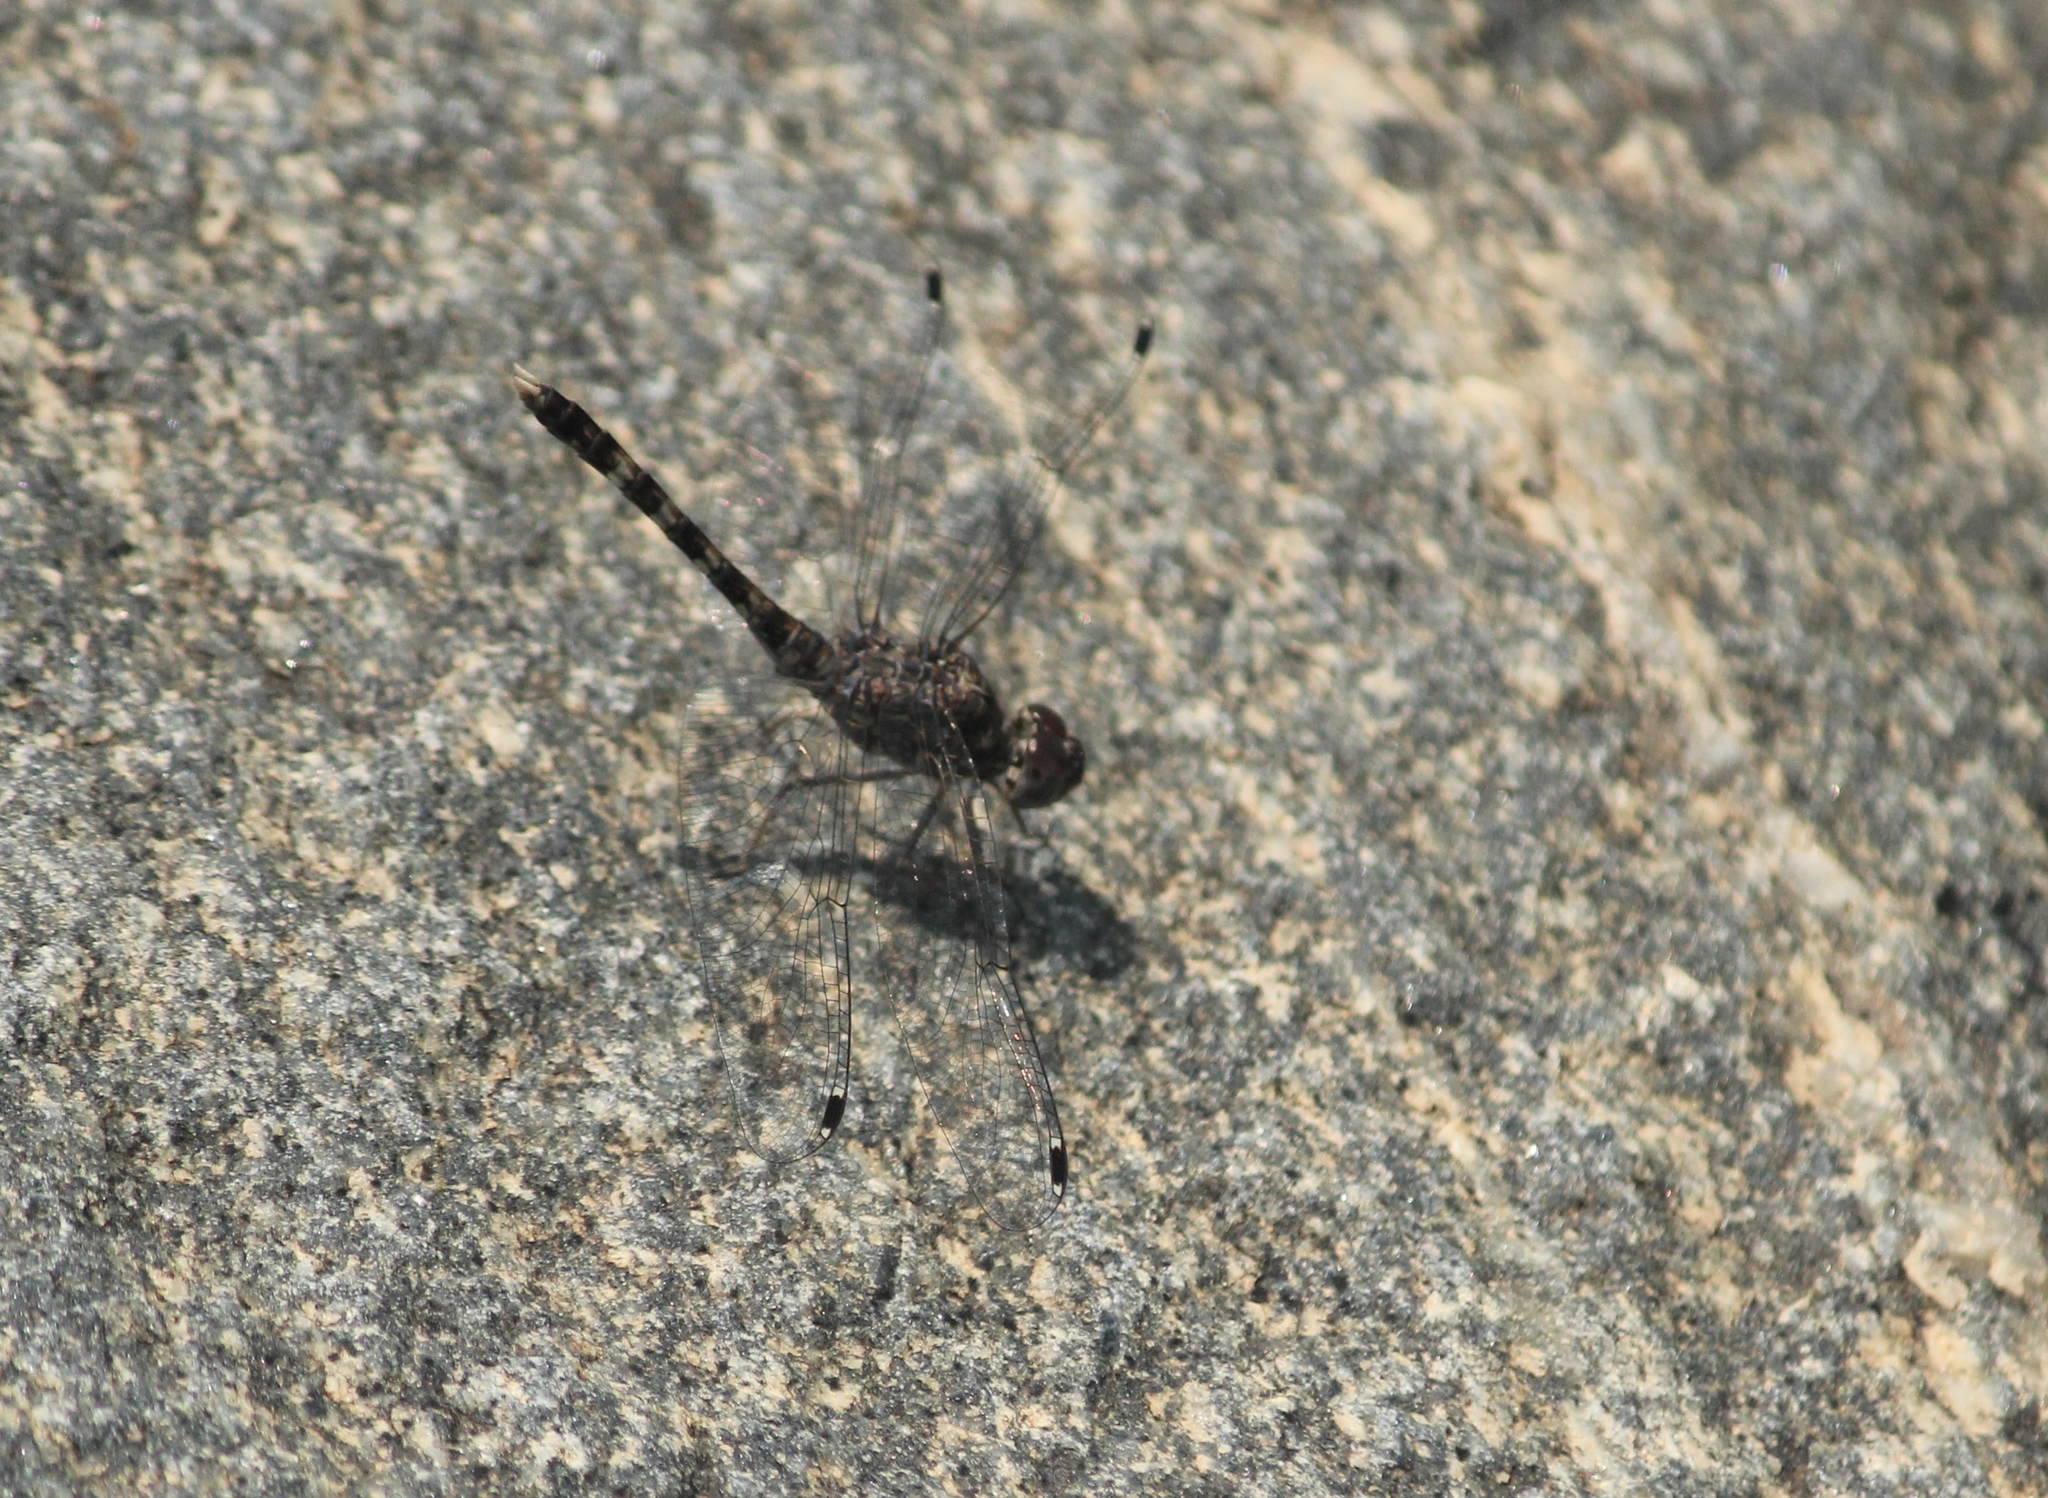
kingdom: Animalia
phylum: Arthropoda
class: Insecta
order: Odonata
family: Libellulidae
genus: Bradinopyga
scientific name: Bradinopyga geminata
